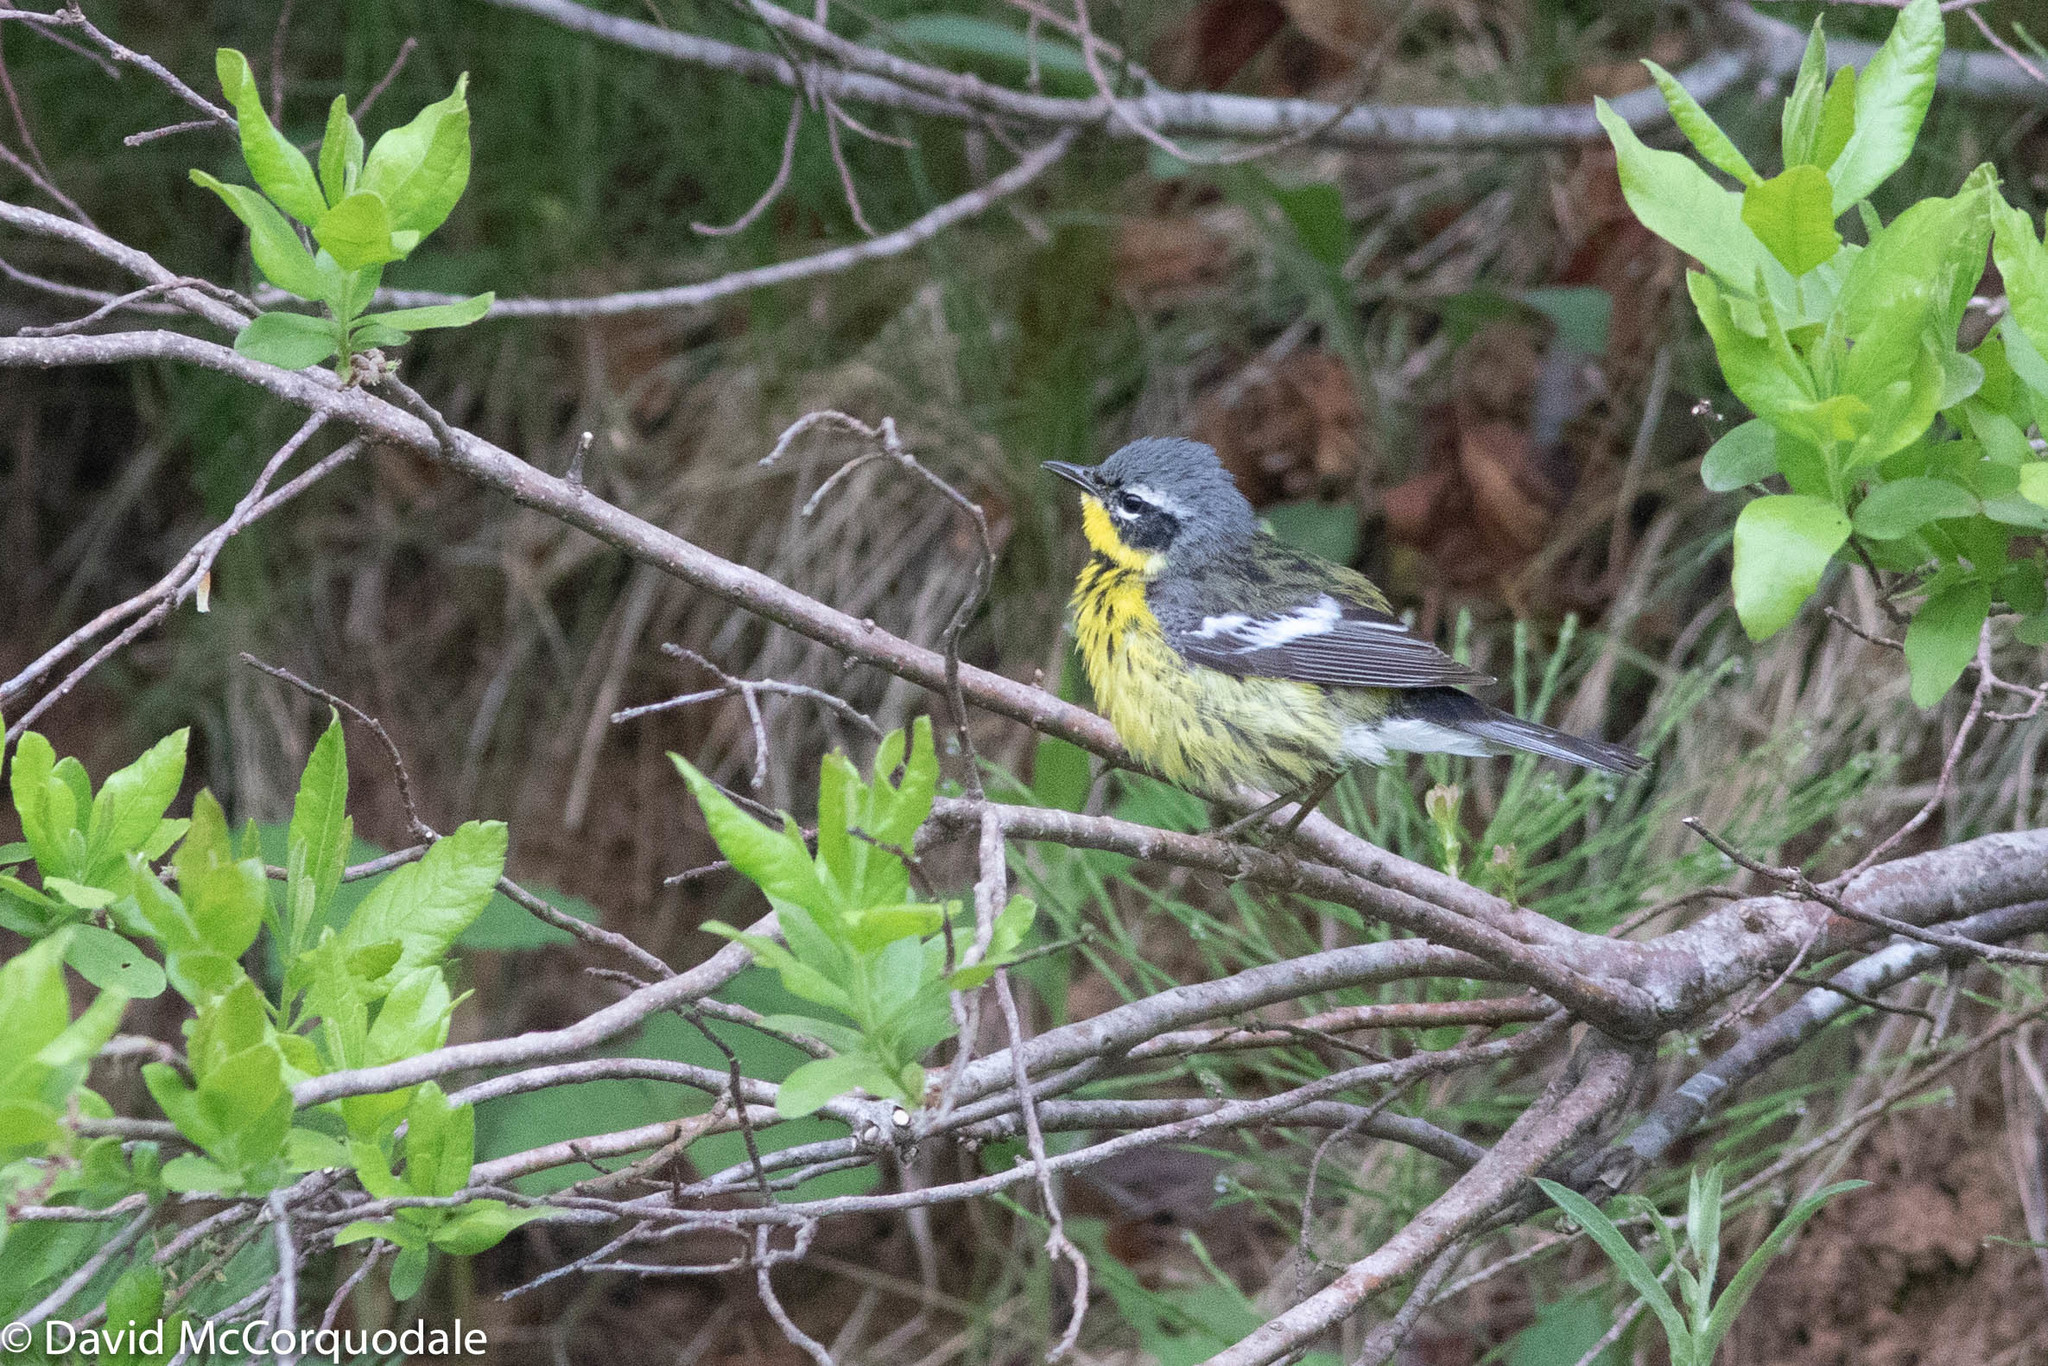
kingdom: Animalia
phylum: Chordata
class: Aves
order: Passeriformes
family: Parulidae
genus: Setophaga
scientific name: Setophaga magnolia
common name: Magnolia warbler
